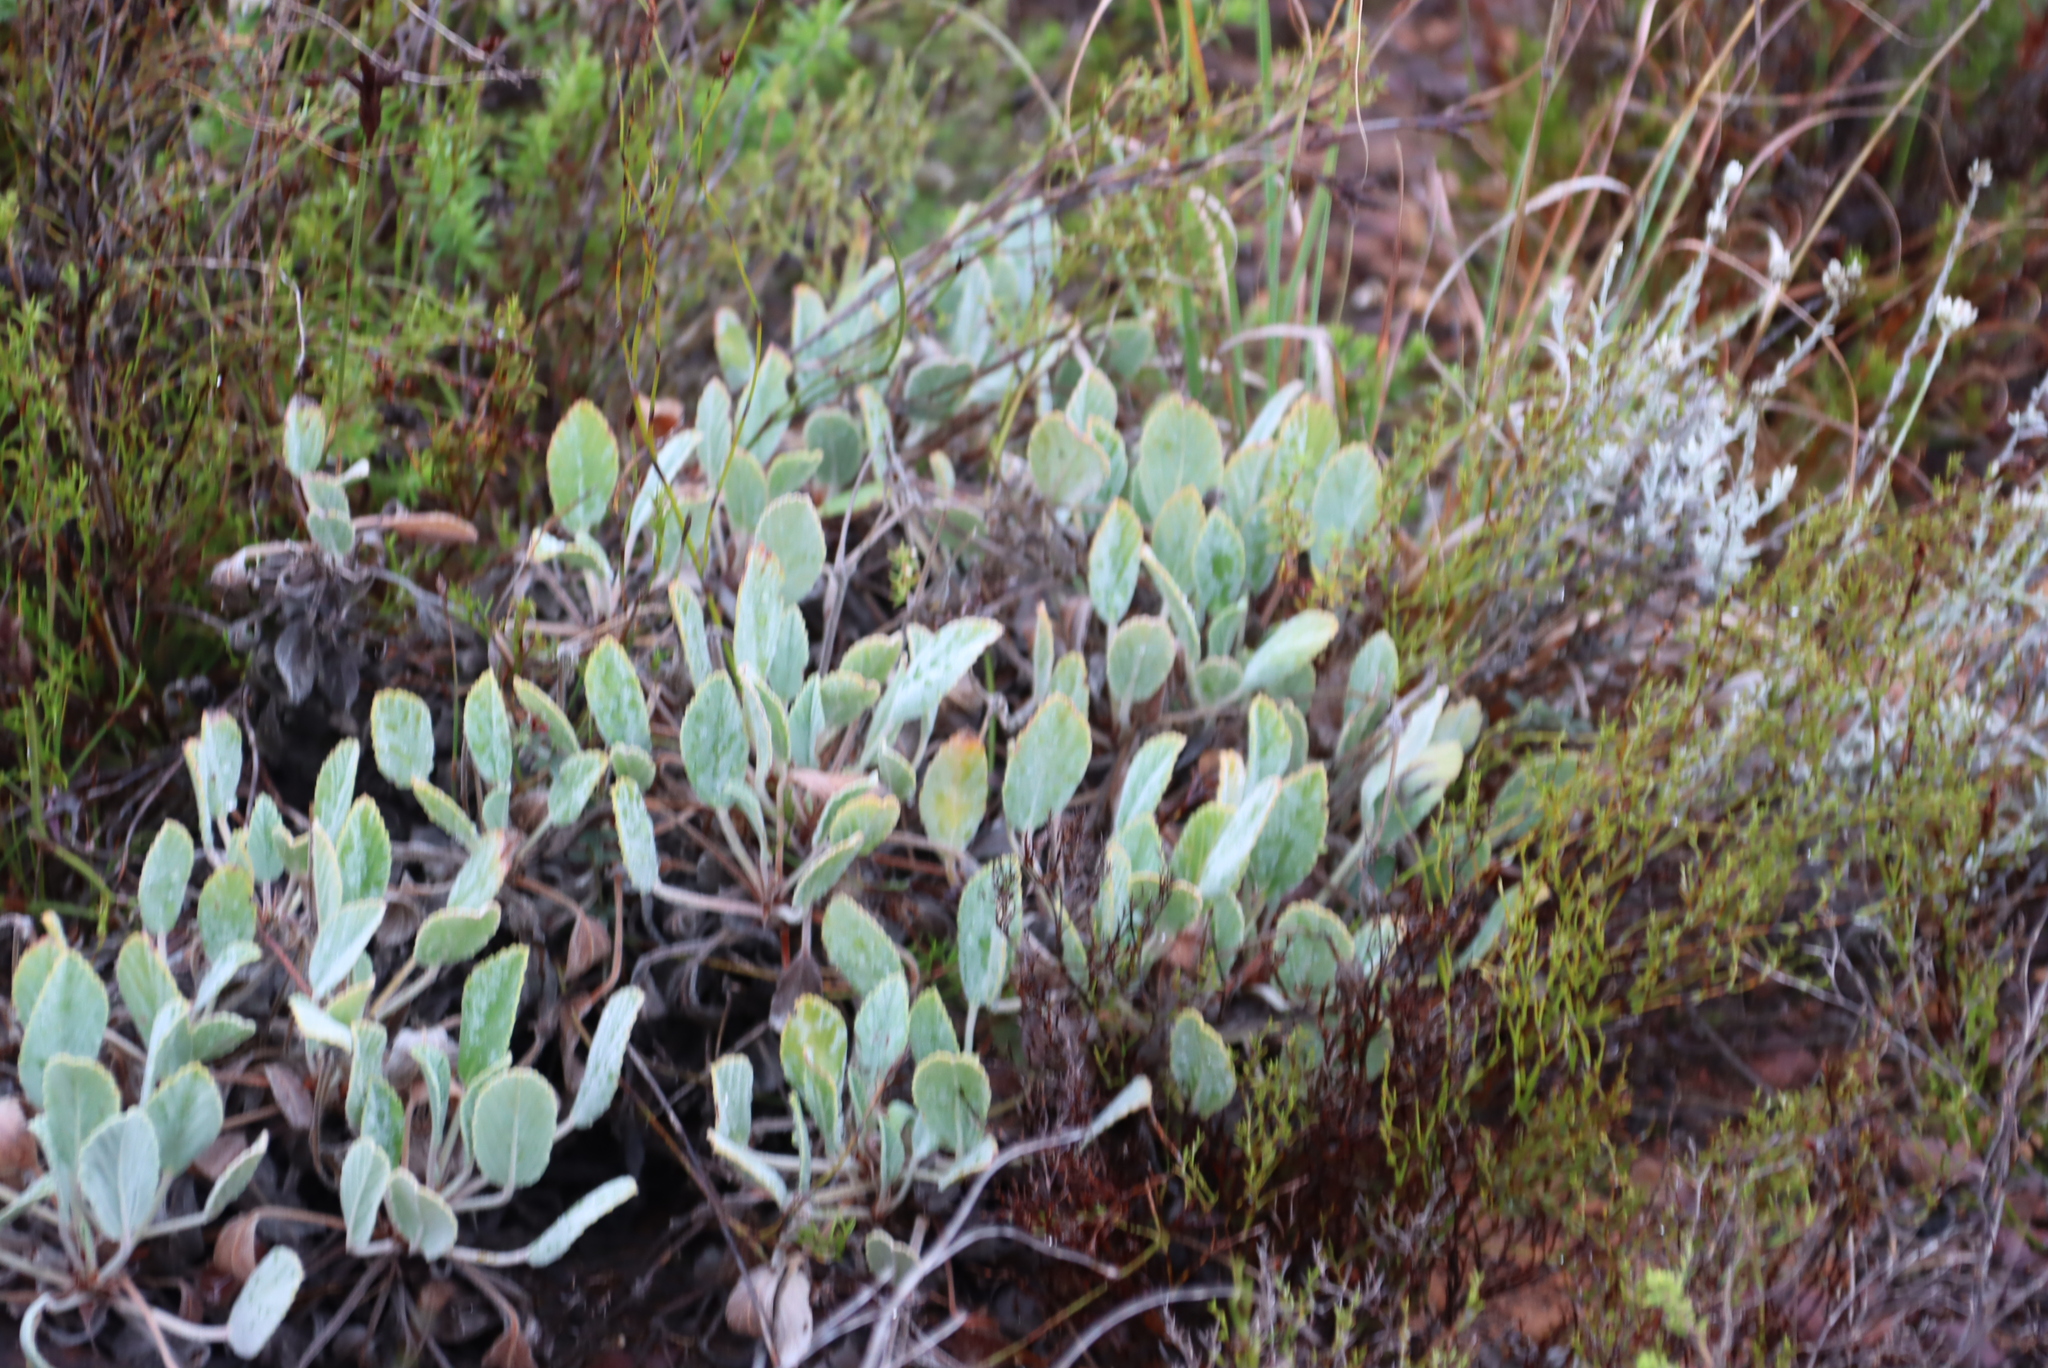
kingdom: Plantae
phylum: Tracheophyta
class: Magnoliopsida
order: Geraniales
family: Geraniaceae
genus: Pelargonium
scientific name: Pelargonium ovale
